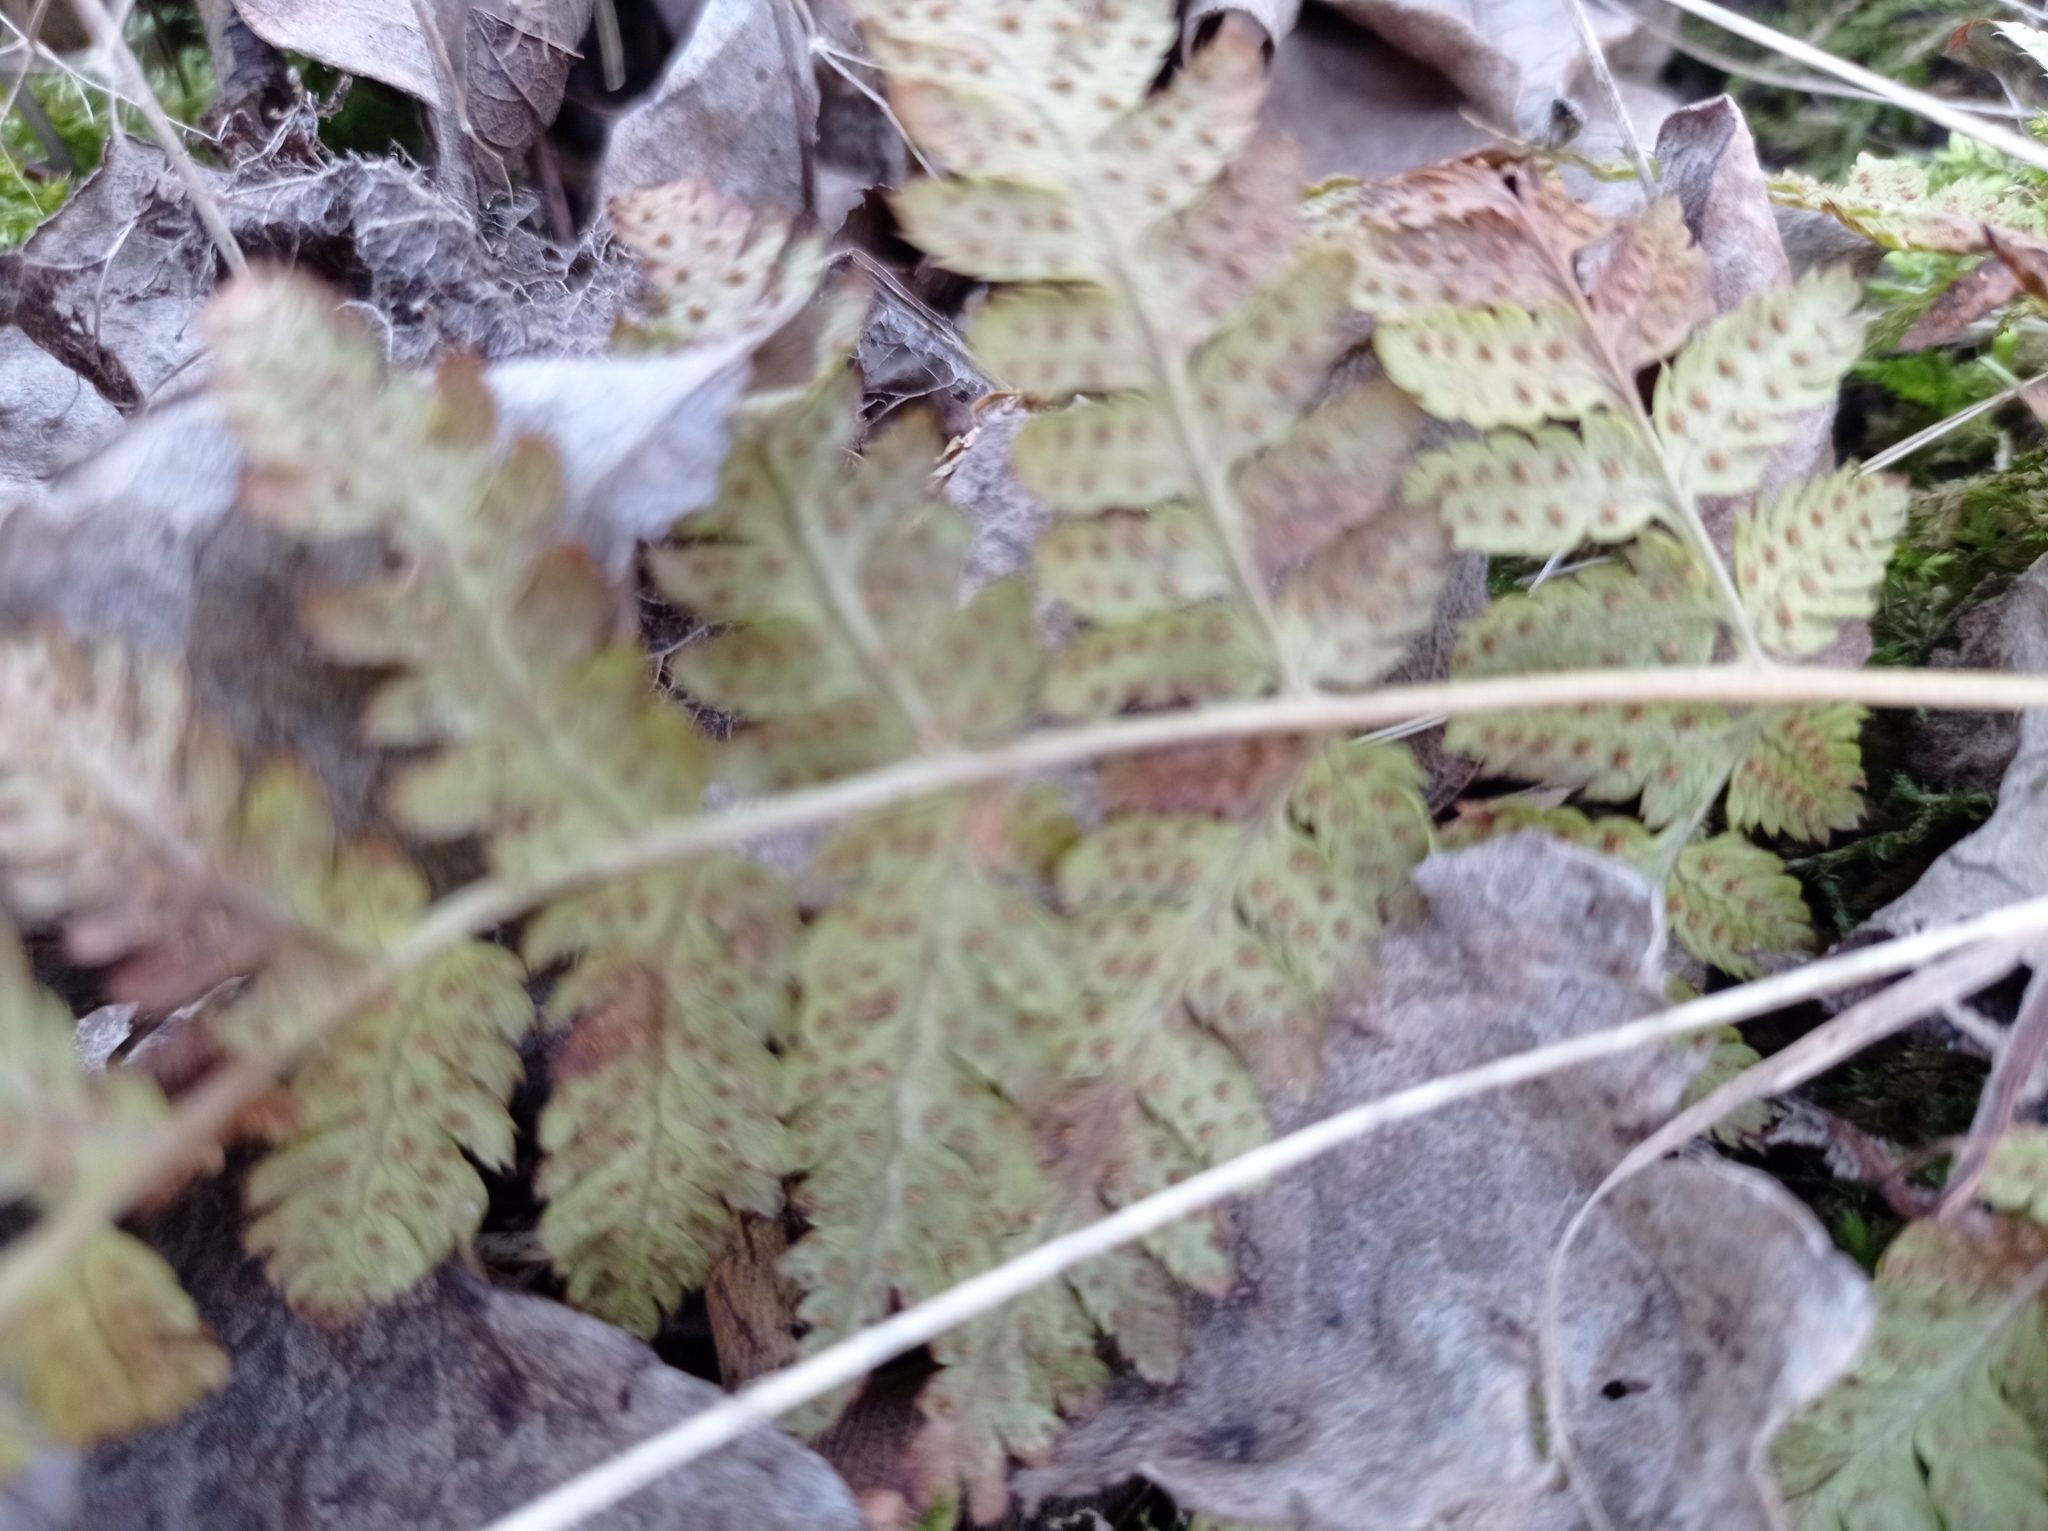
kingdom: Plantae
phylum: Tracheophyta
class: Polypodiopsida
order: Polypodiales
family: Dryopteridaceae
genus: Dryopteris
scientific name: Dryopteris carthusiana
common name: Narrow buckler-fern
